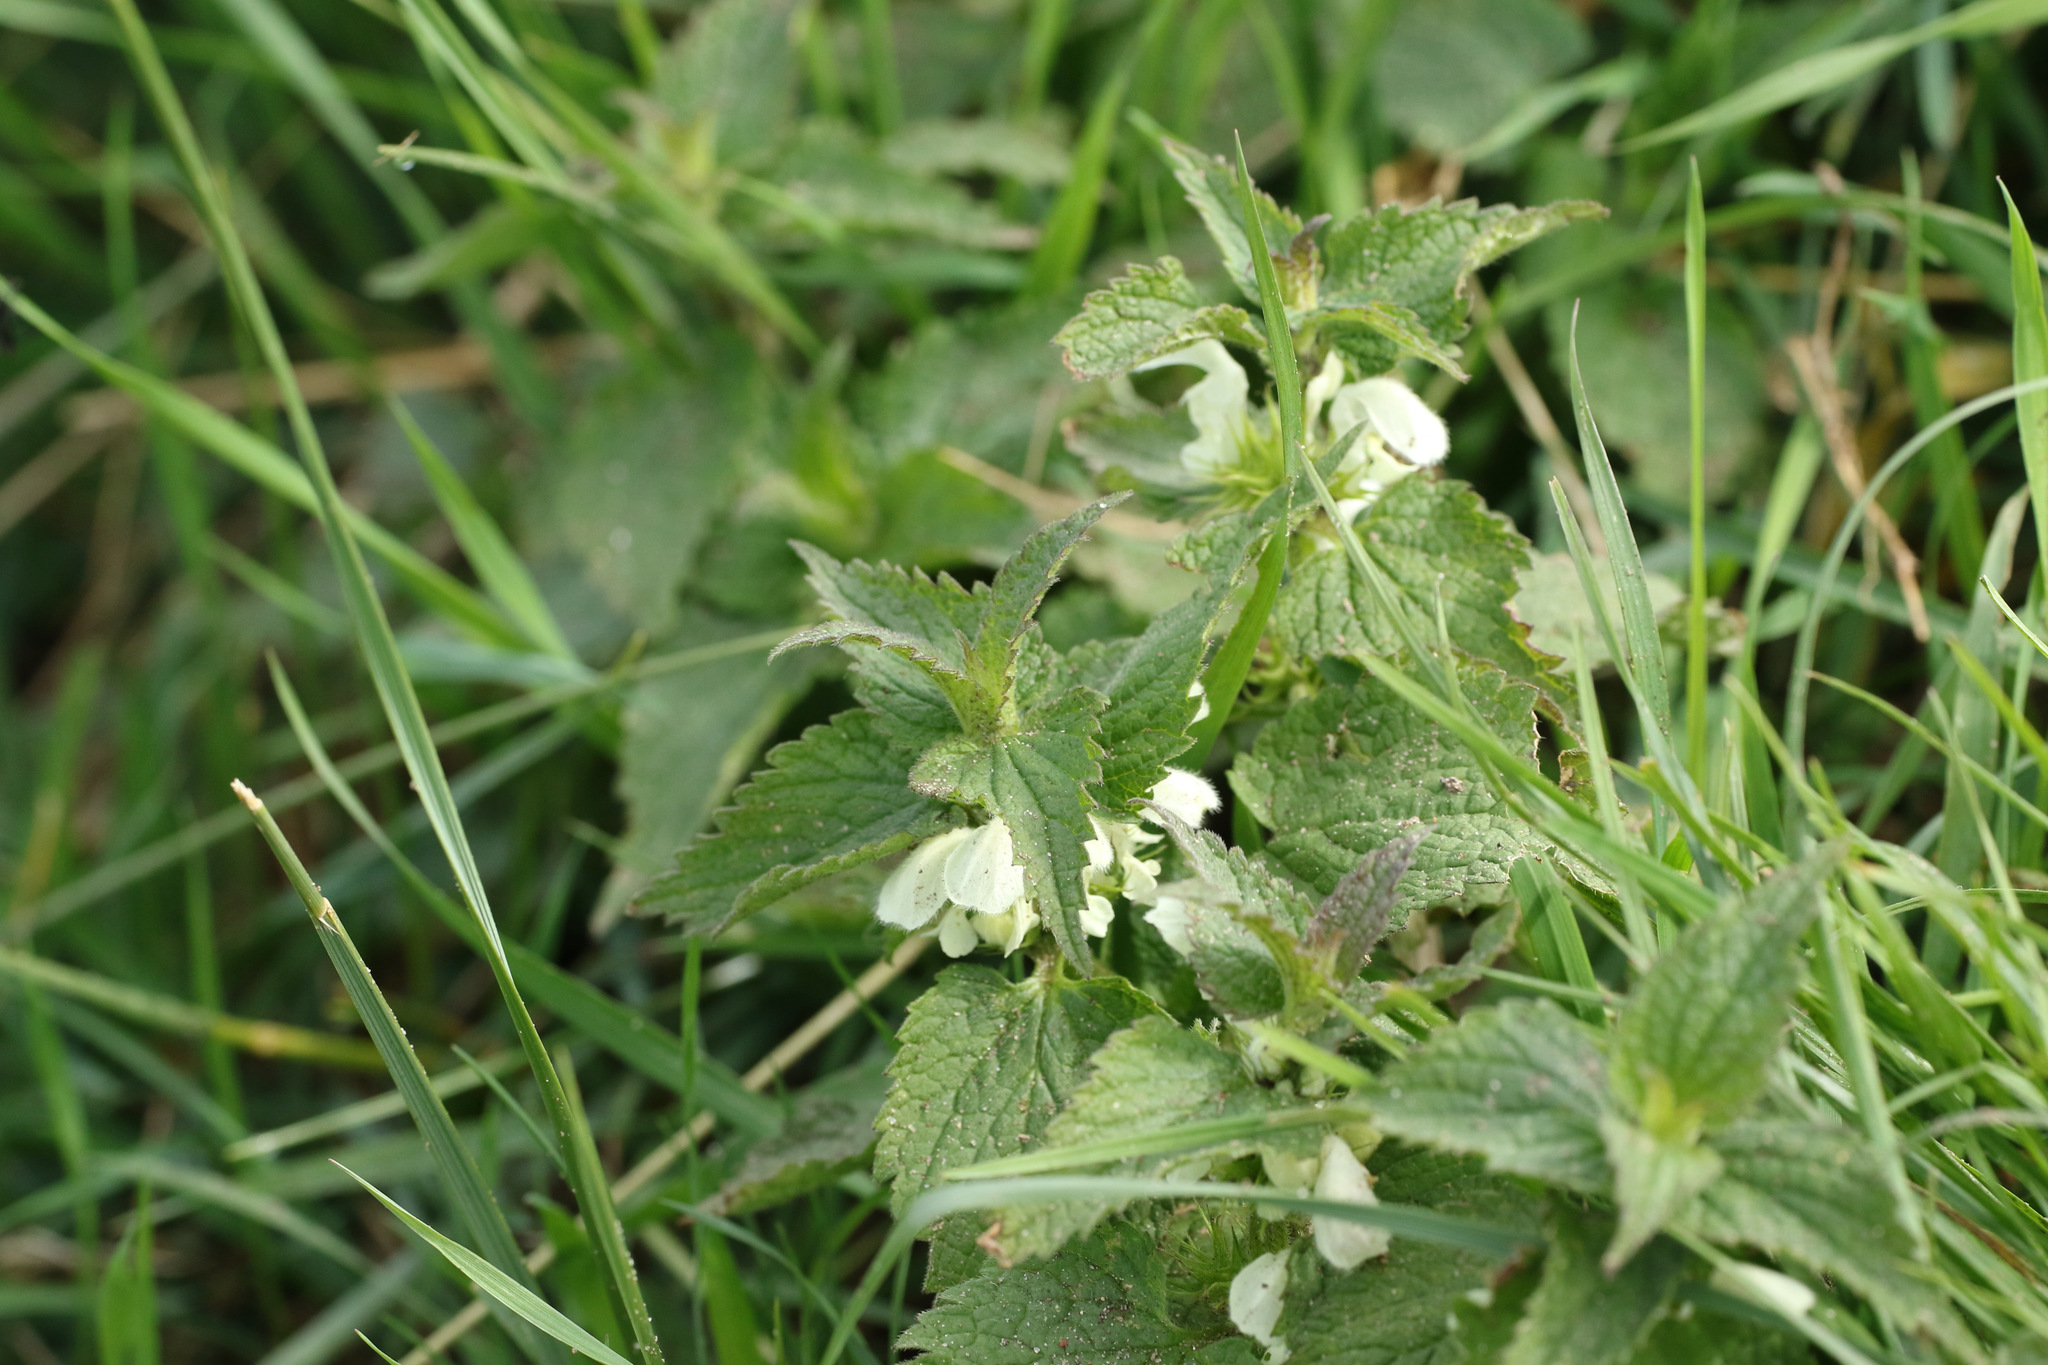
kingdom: Plantae
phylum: Tracheophyta
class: Magnoliopsida
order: Lamiales
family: Lamiaceae
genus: Lamium
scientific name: Lamium album
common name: White dead-nettle
